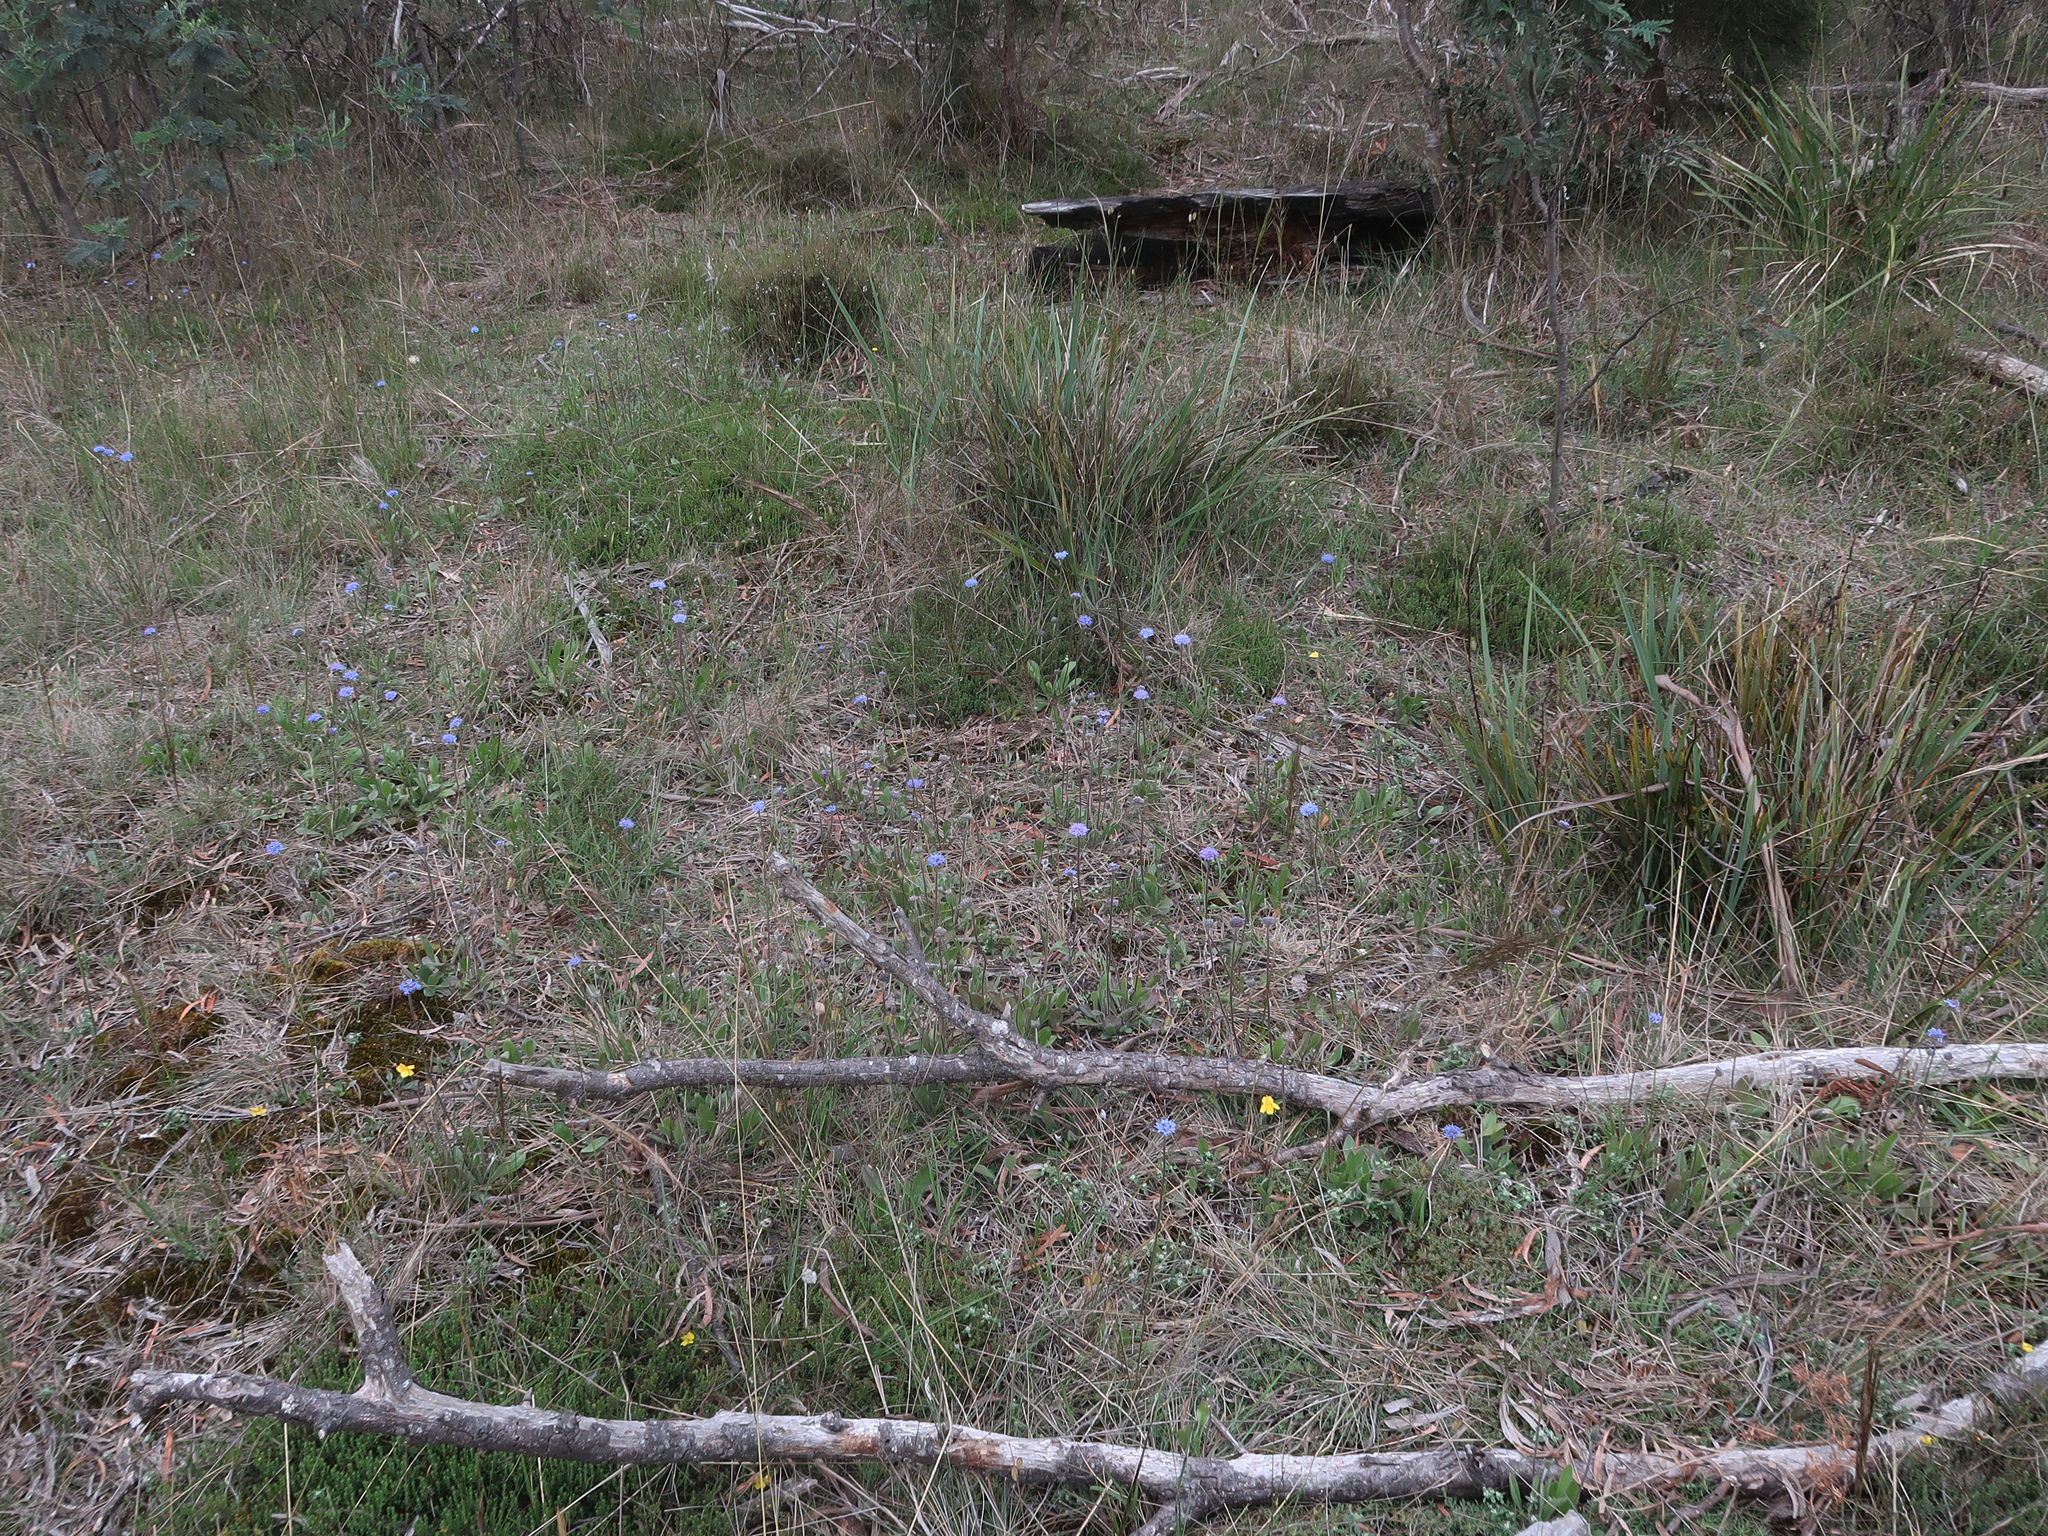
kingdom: Plantae
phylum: Tracheophyta
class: Magnoliopsida
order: Asterales
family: Goodeniaceae
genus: Brunonia
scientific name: Brunonia australis
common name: Blue pincushion
